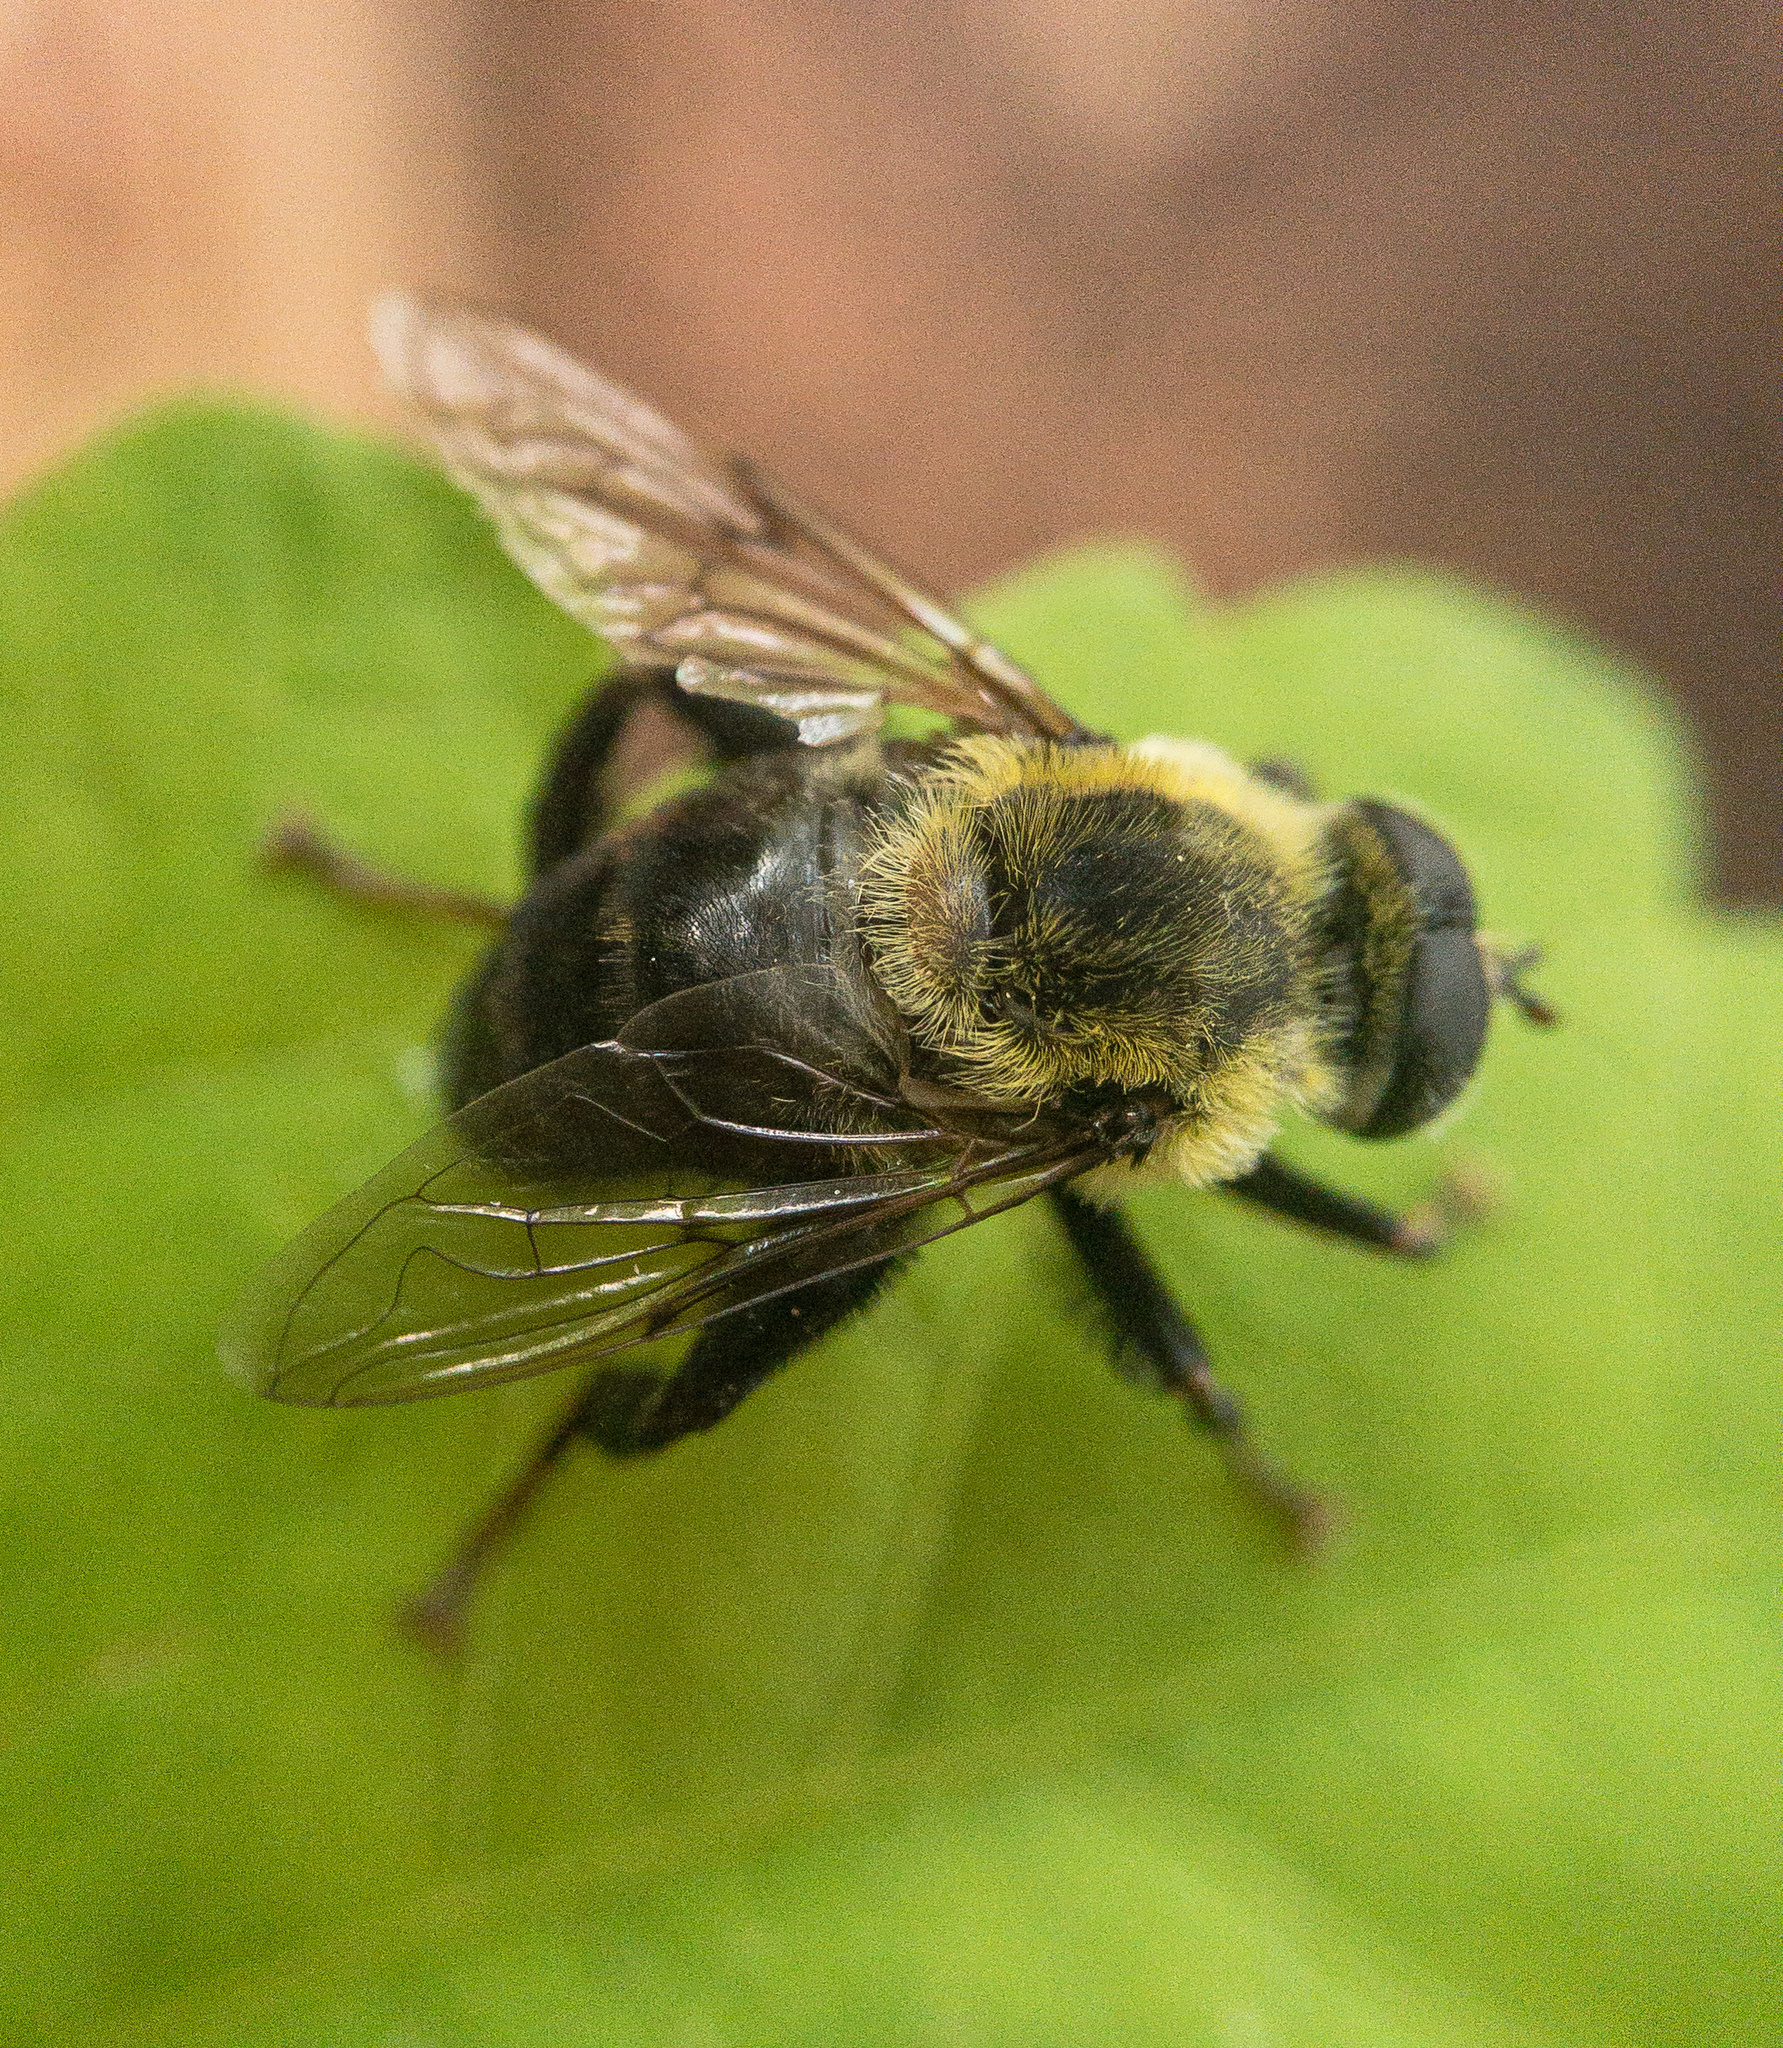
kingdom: Animalia
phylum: Arthropoda
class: Insecta
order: Diptera
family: Syrphidae
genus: Imatisma
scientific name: Imatisma posticata
